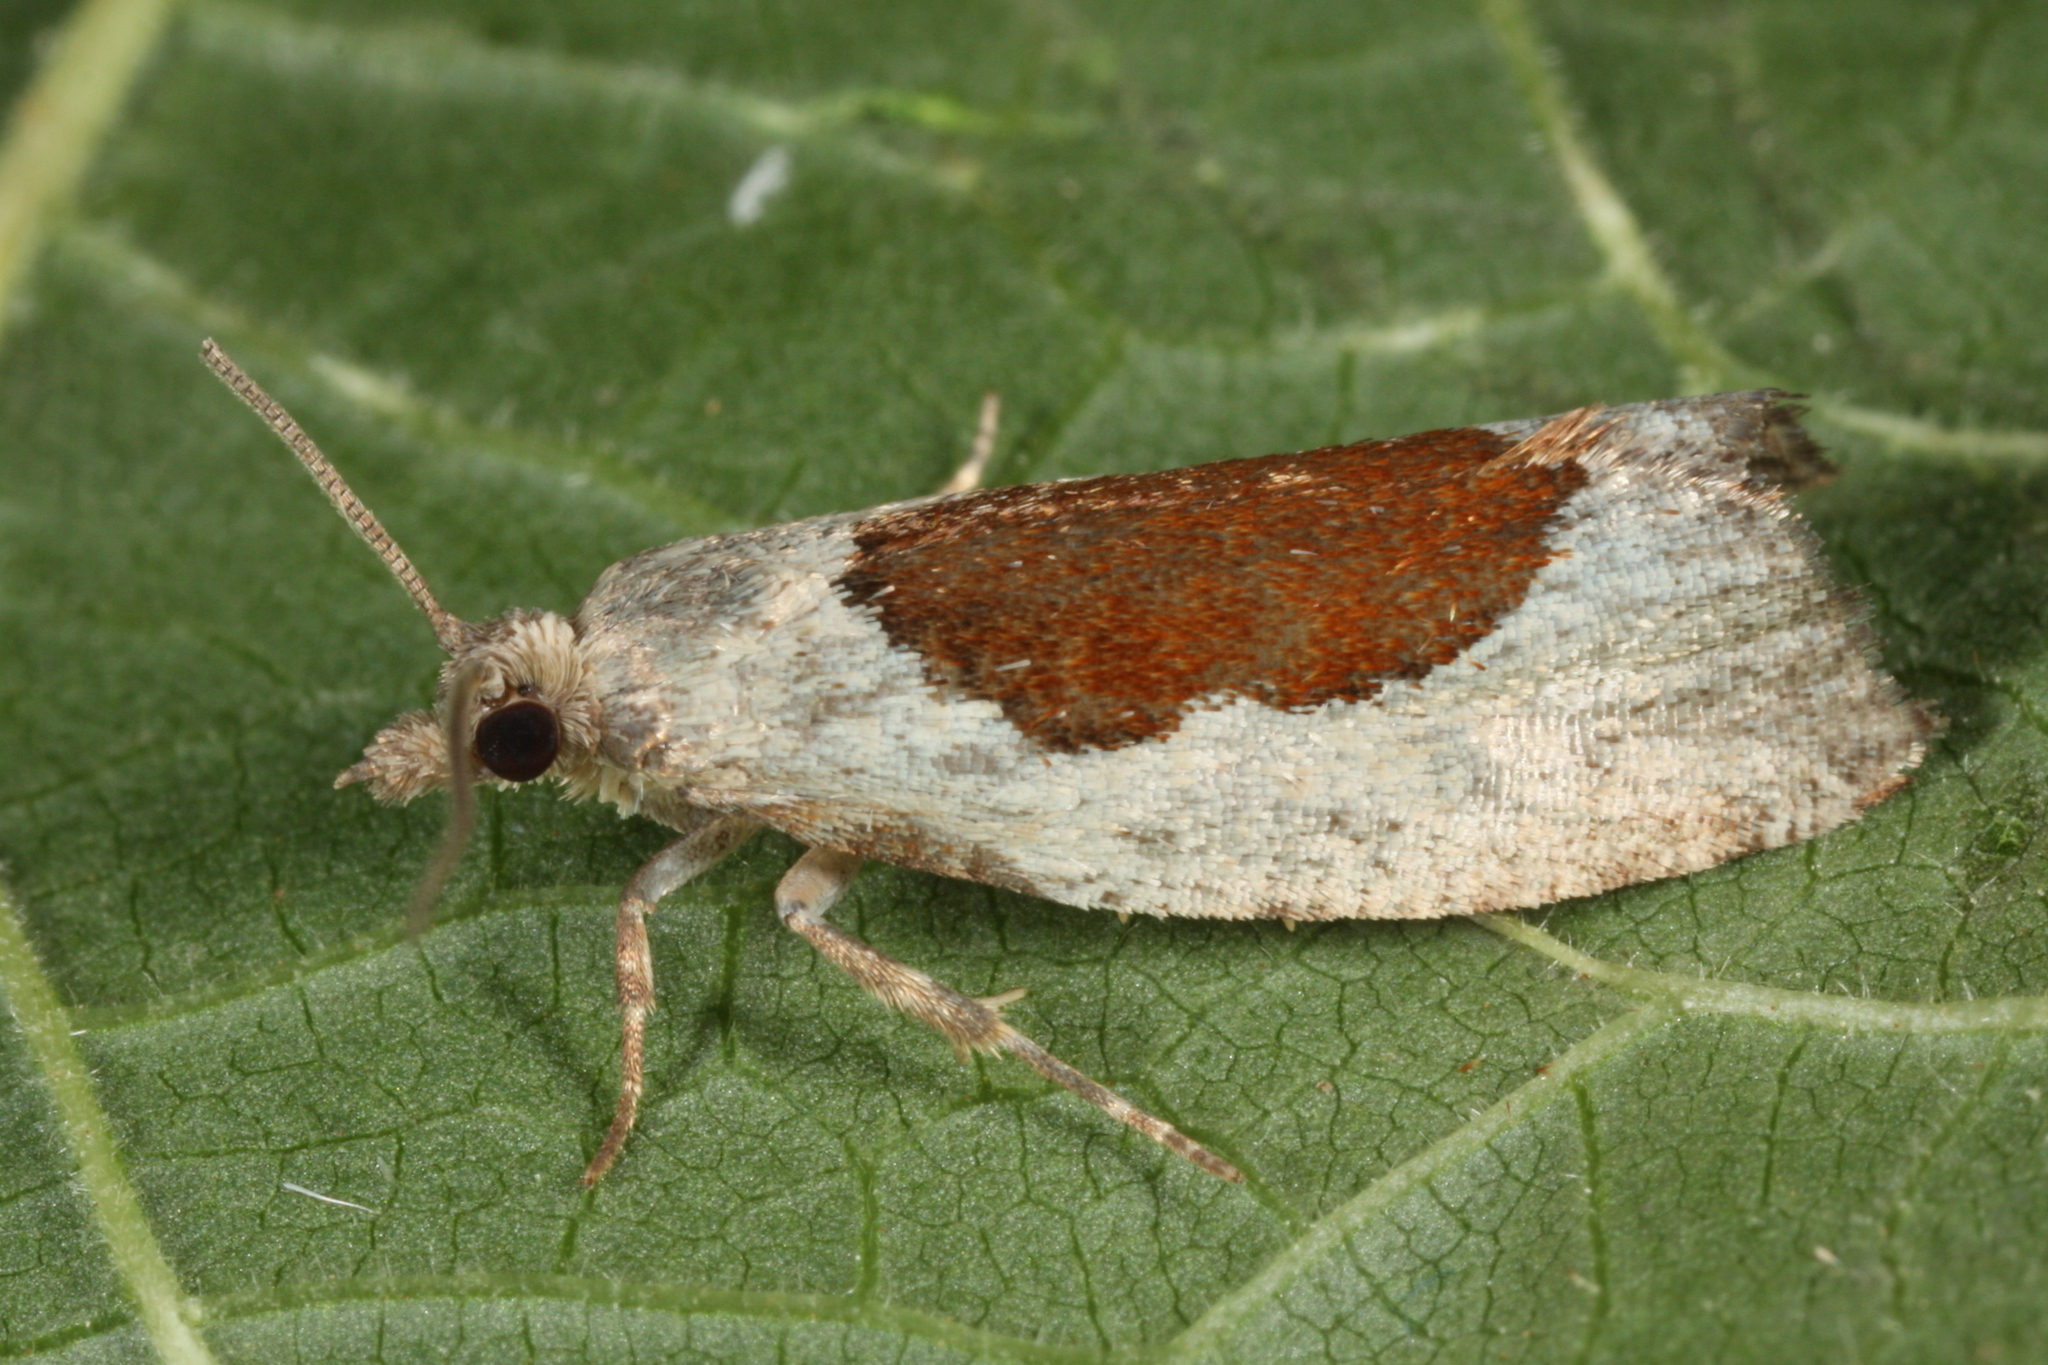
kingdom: Animalia
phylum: Arthropoda
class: Insecta
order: Lepidoptera
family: Tortricidae
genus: Epinotia
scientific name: Epinotia solandriana
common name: Variable bell
